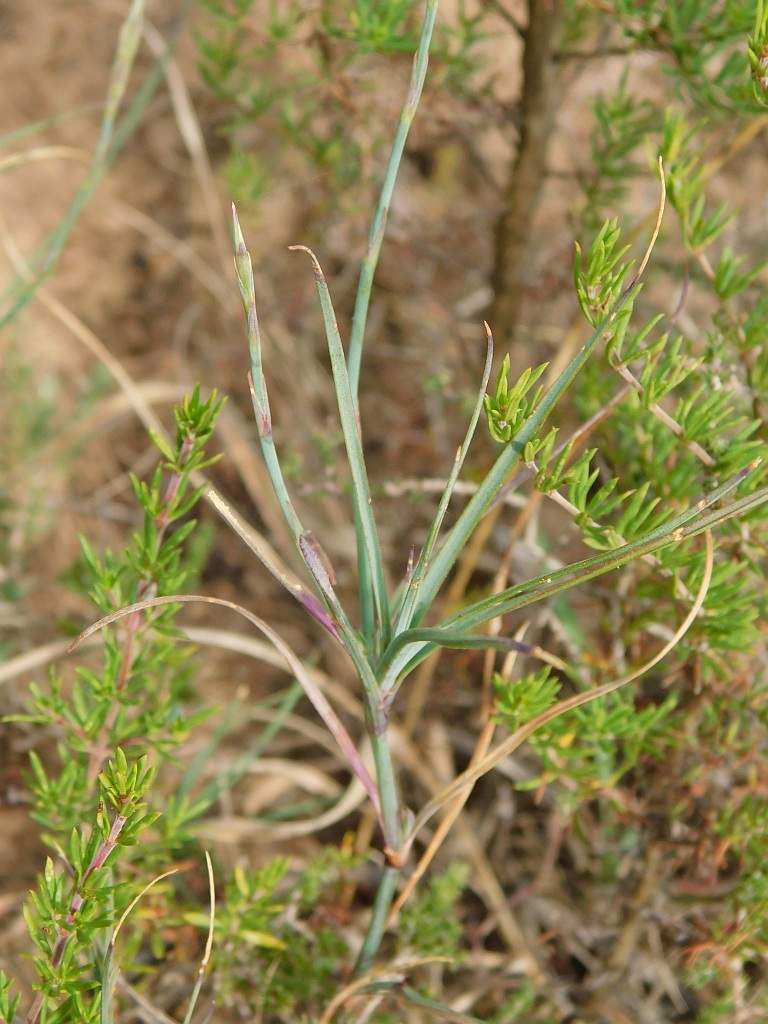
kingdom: Plantae
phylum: Tracheophyta
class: Magnoliopsida
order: Caryophyllales
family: Caryophyllaceae
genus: Dianthus
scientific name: Dianthus thunbergii
